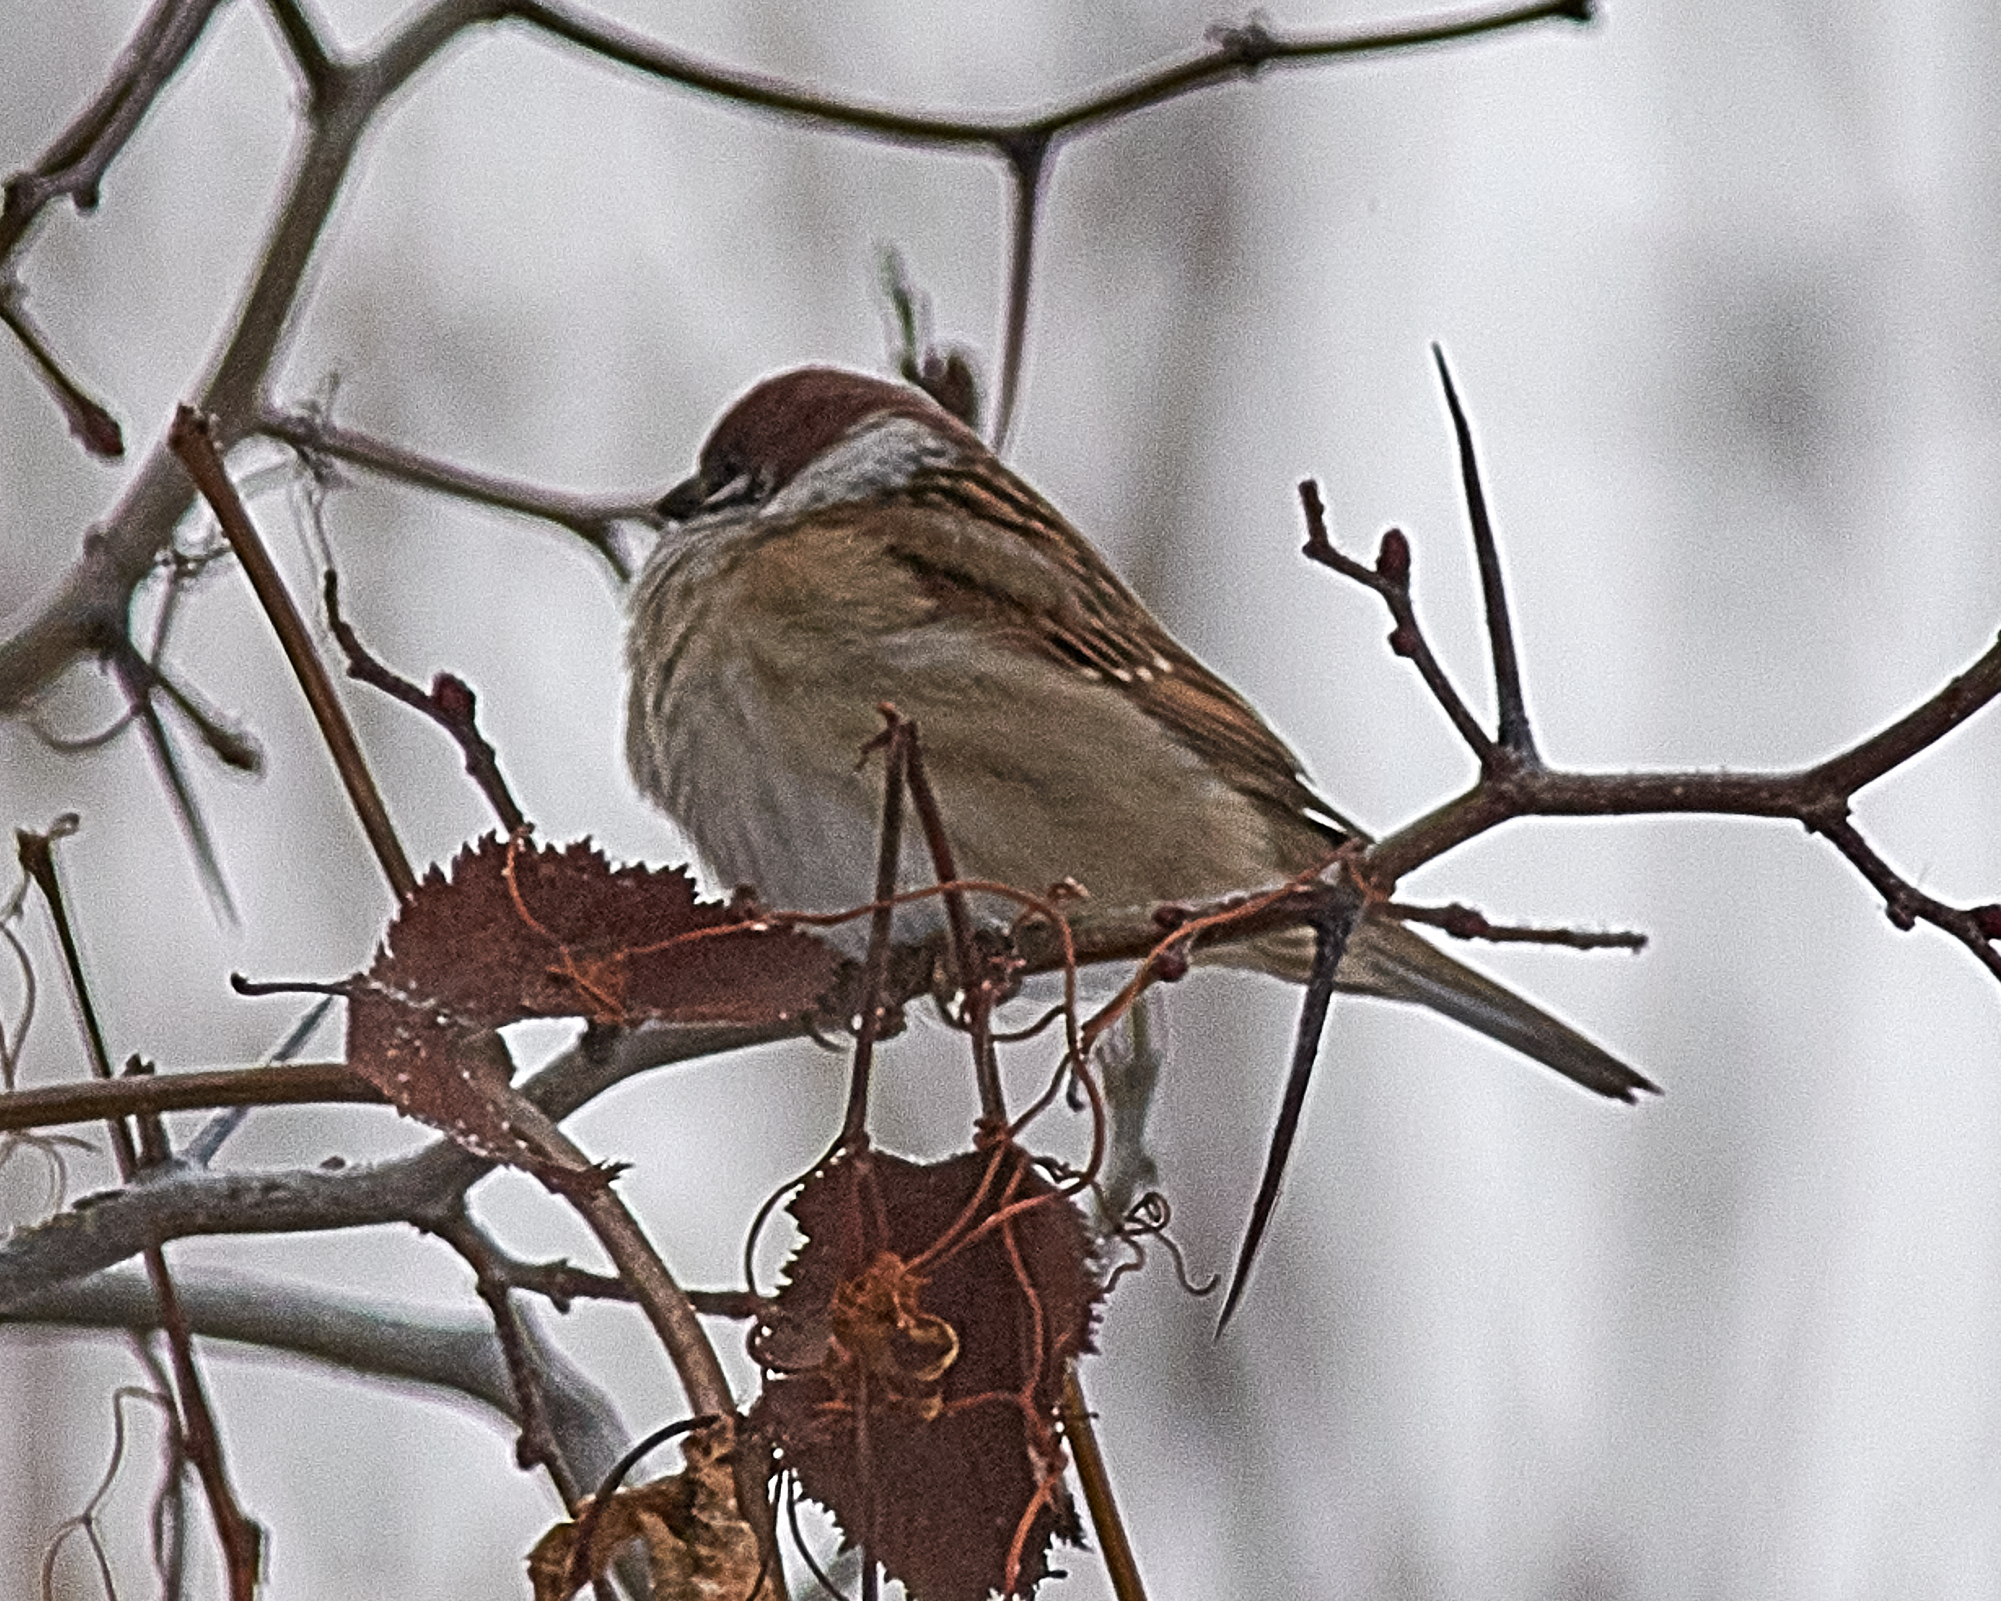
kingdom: Animalia
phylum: Chordata
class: Aves
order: Passeriformes
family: Passeridae
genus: Passer
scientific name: Passer montanus
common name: Eurasian tree sparrow
